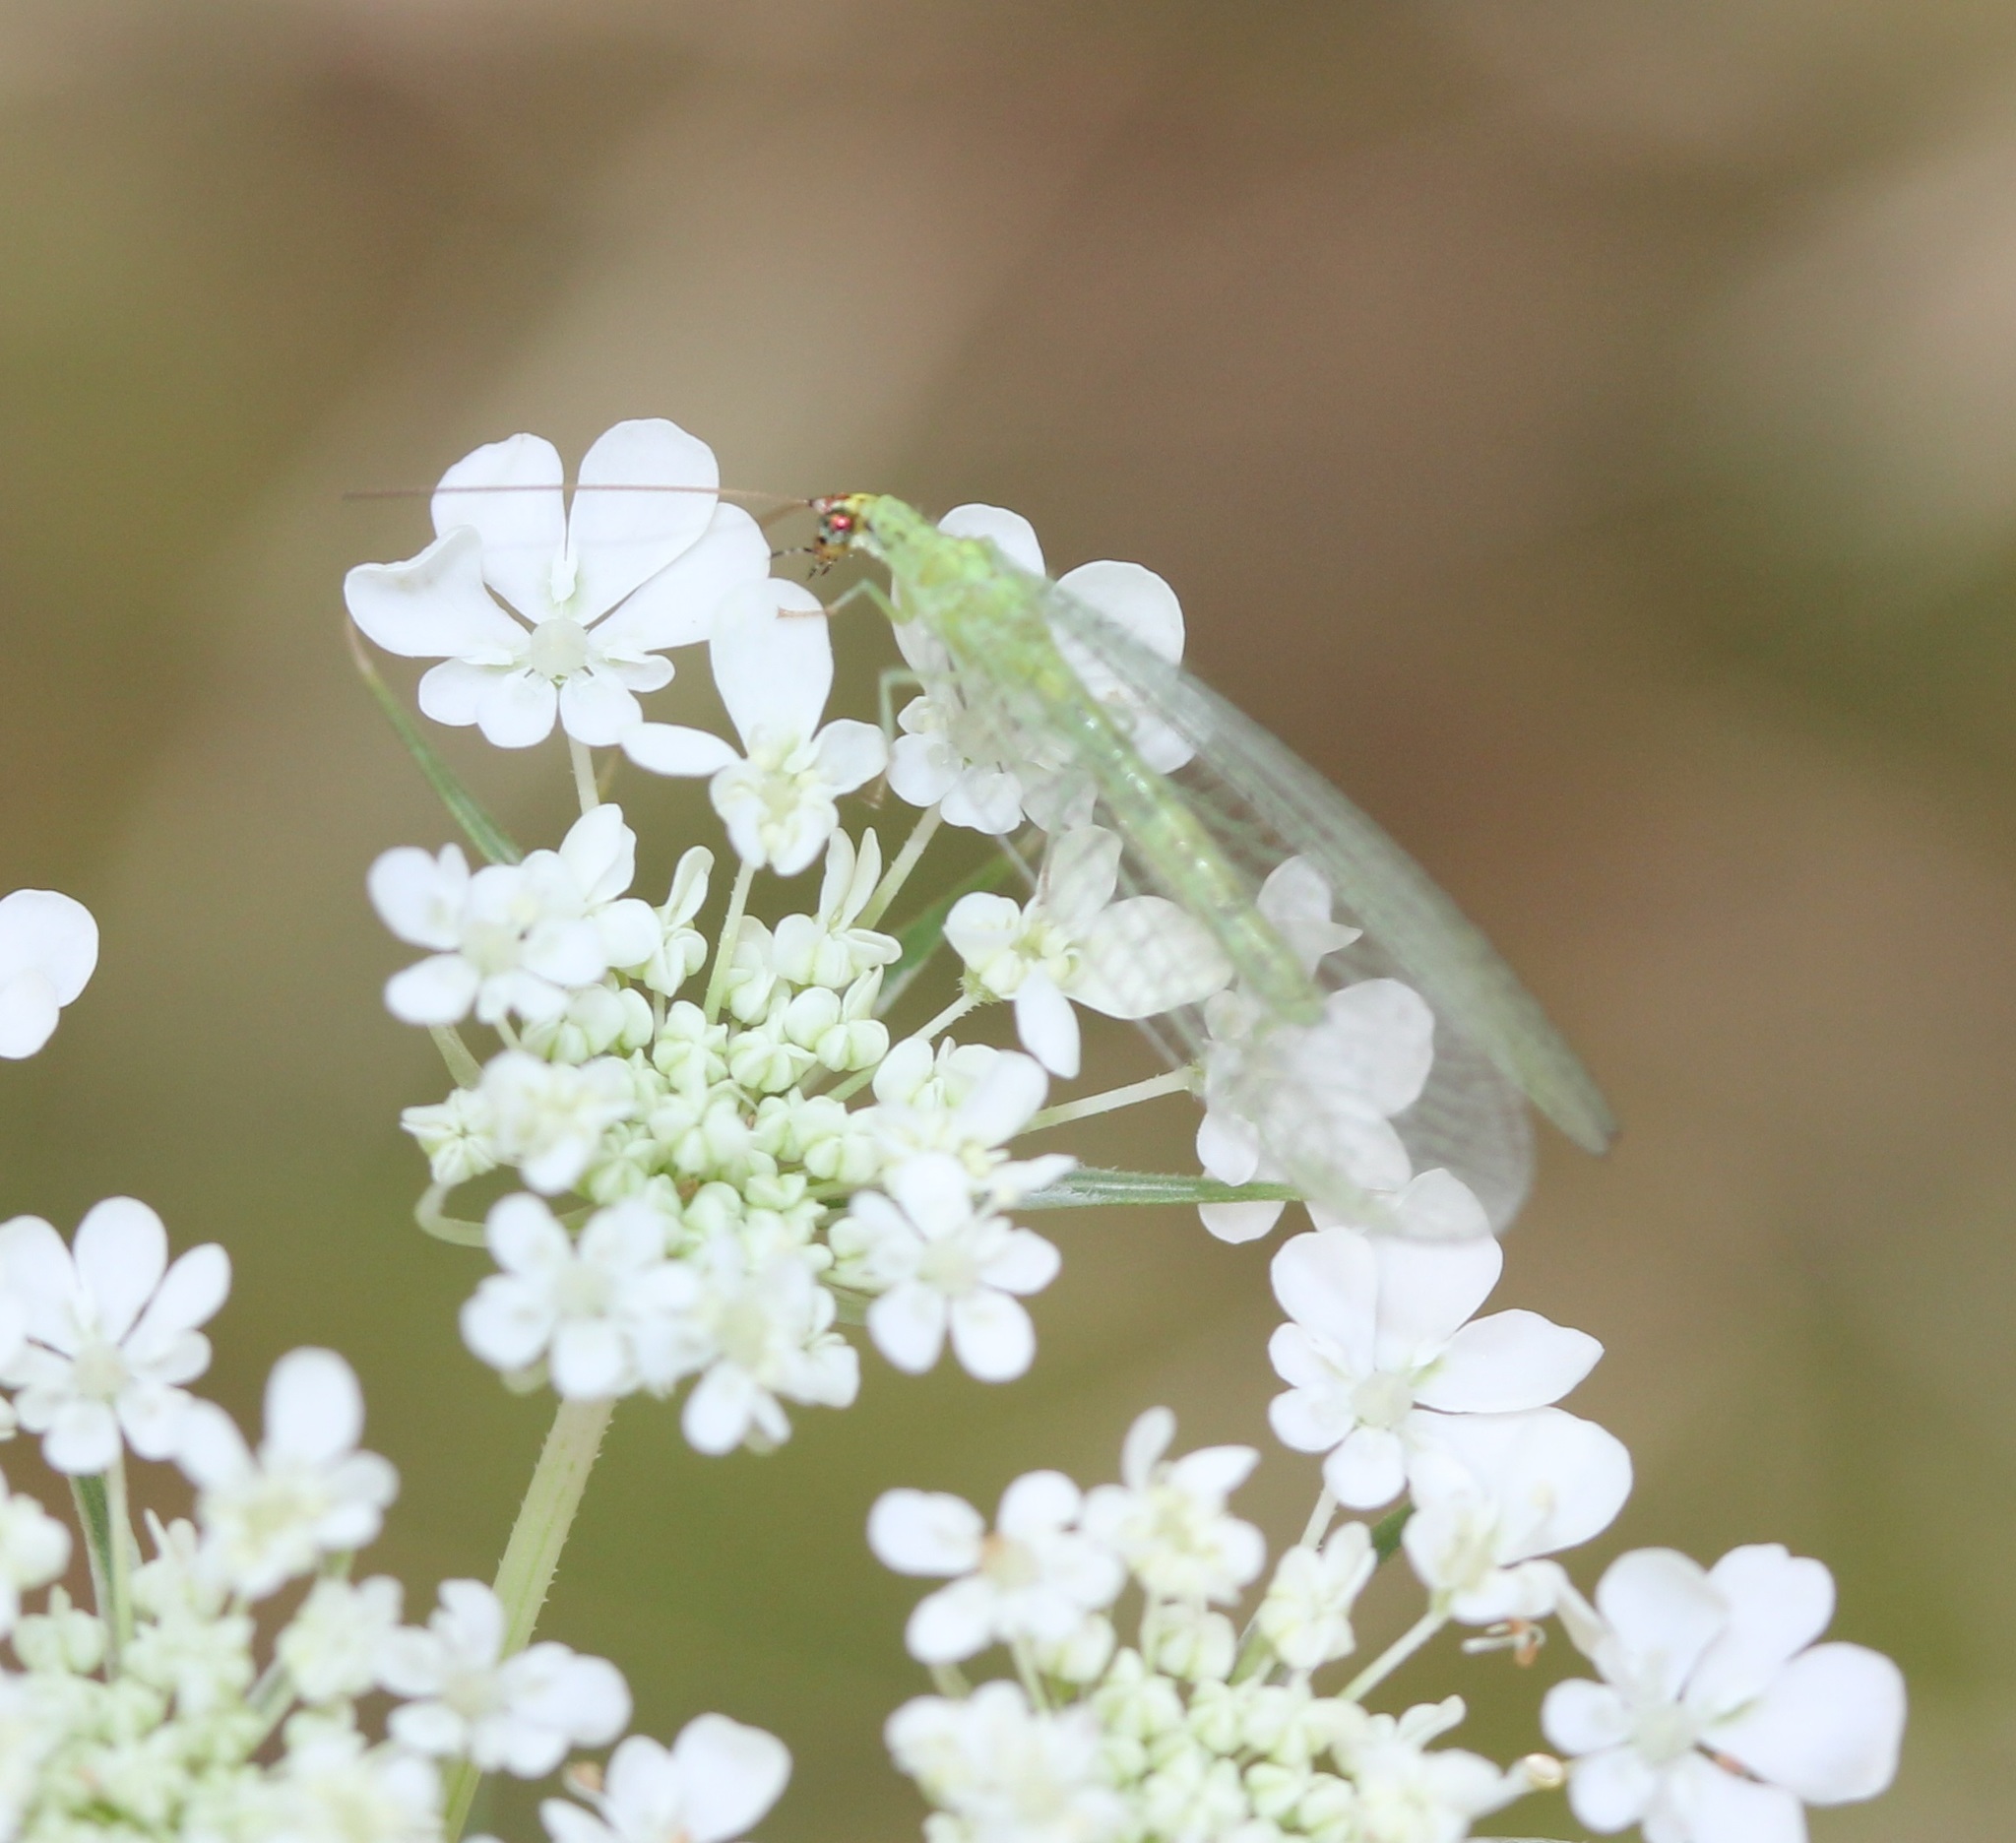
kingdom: Animalia
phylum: Arthropoda
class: Insecta
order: Neuroptera
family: Chrysopidae
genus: Chrysopa
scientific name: Chrysopa oculata
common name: Golden-eyed lacewing
